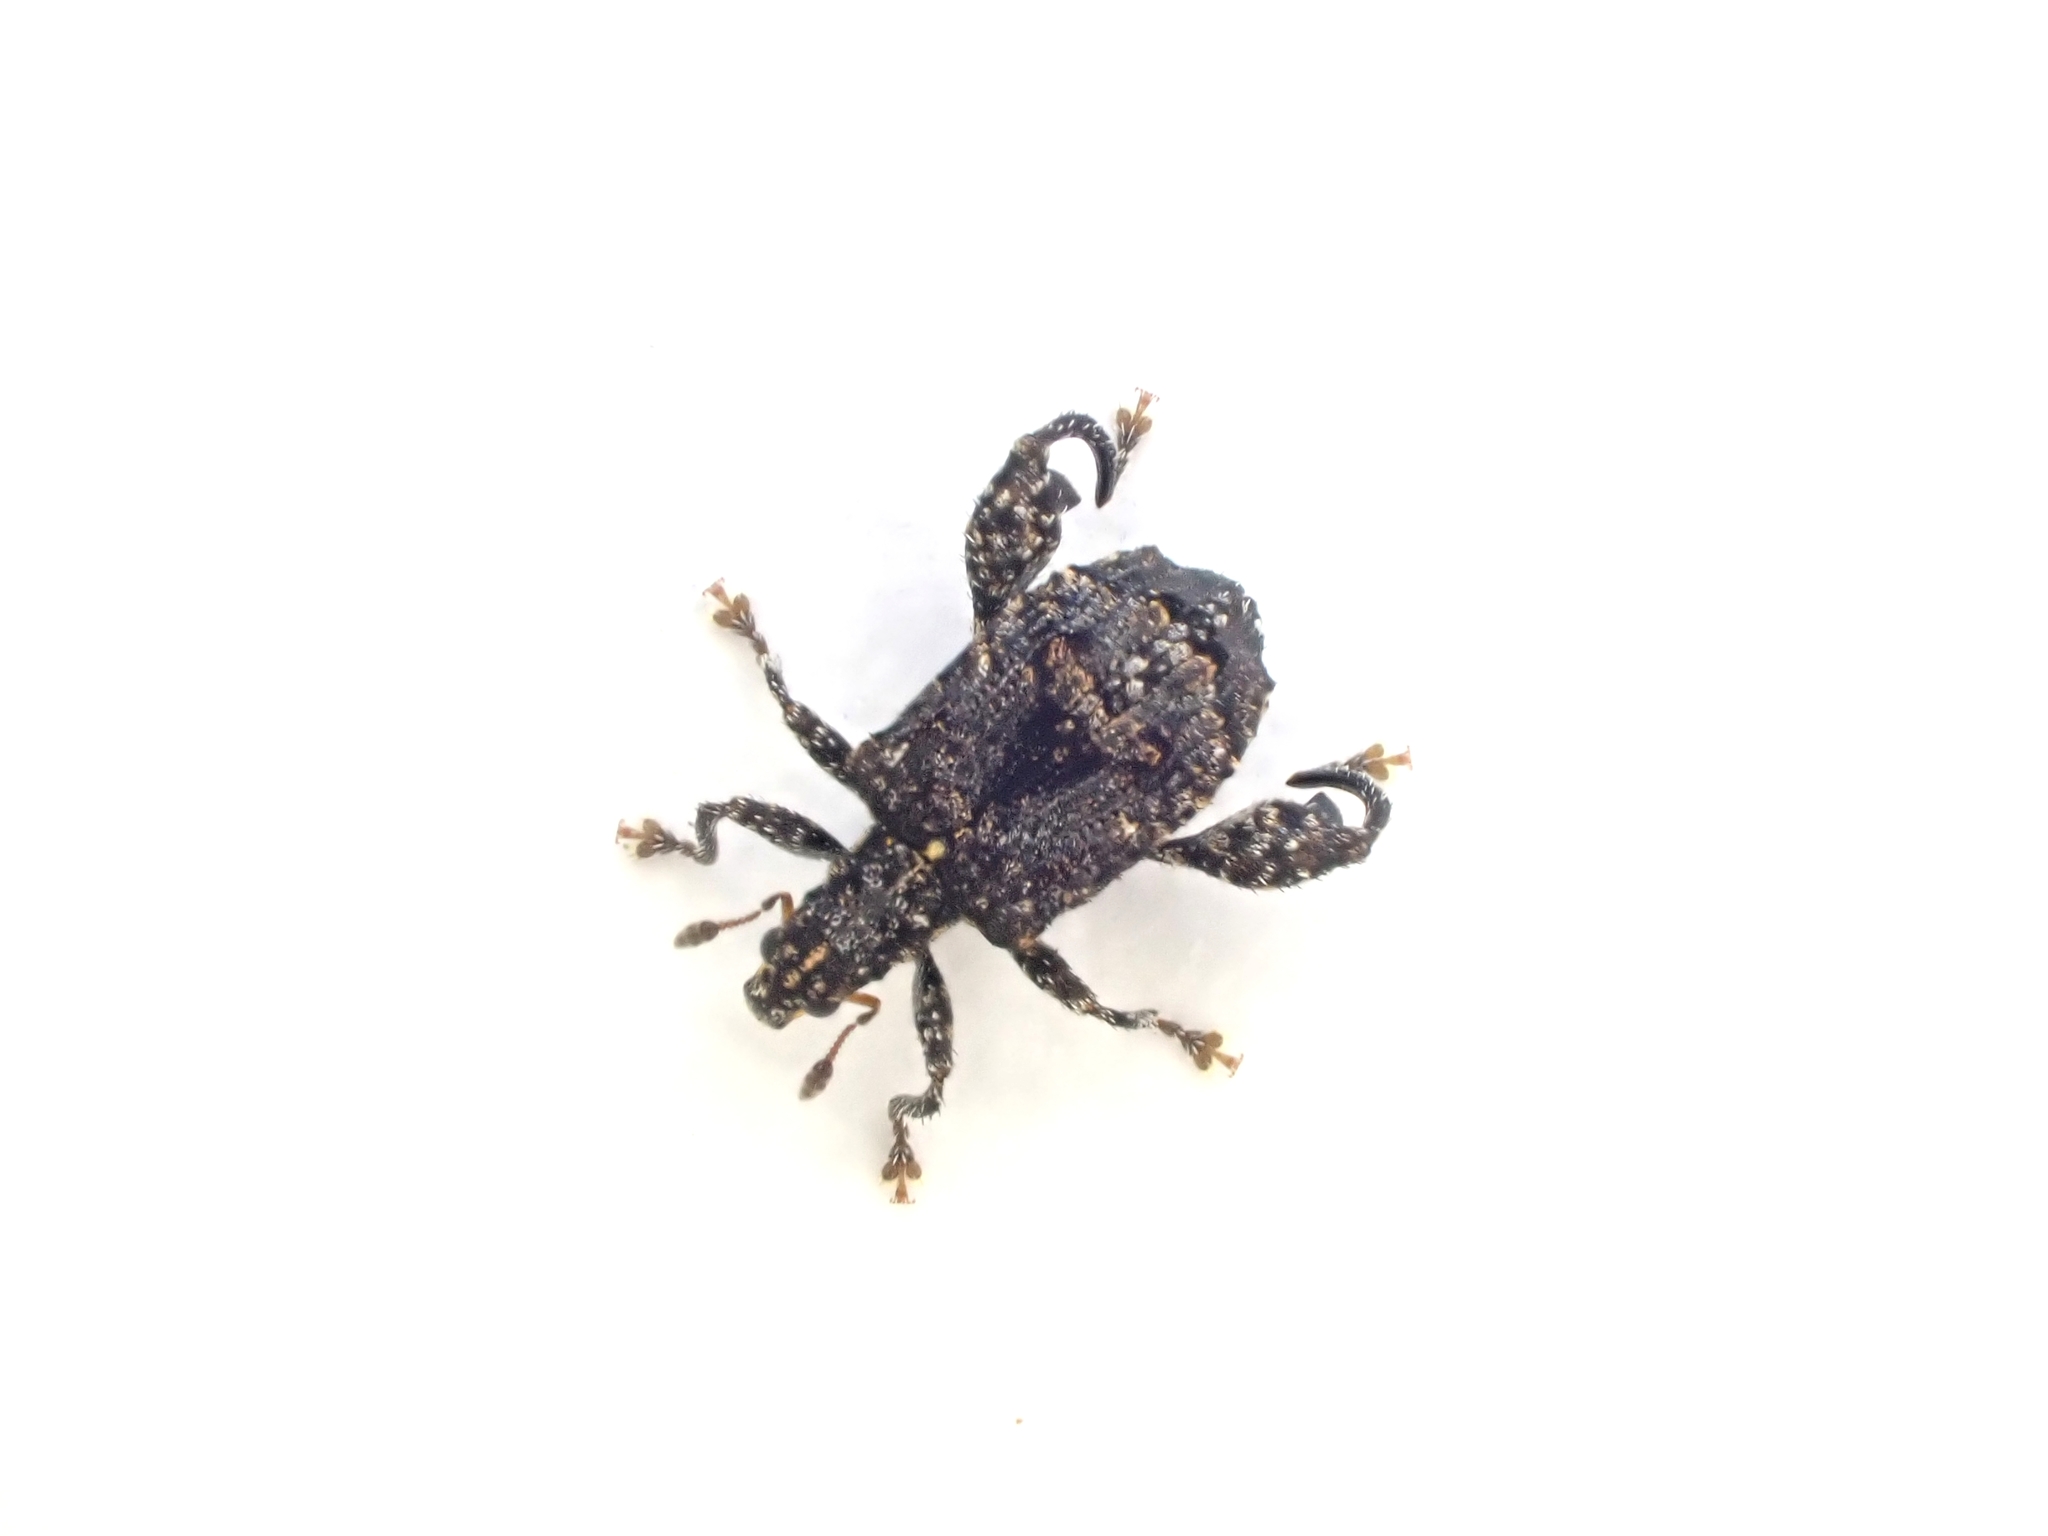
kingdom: Animalia
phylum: Arthropoda
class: Insecta
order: Coleoptera
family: Curculionidae
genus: Pactola
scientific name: Pactola variabilis
